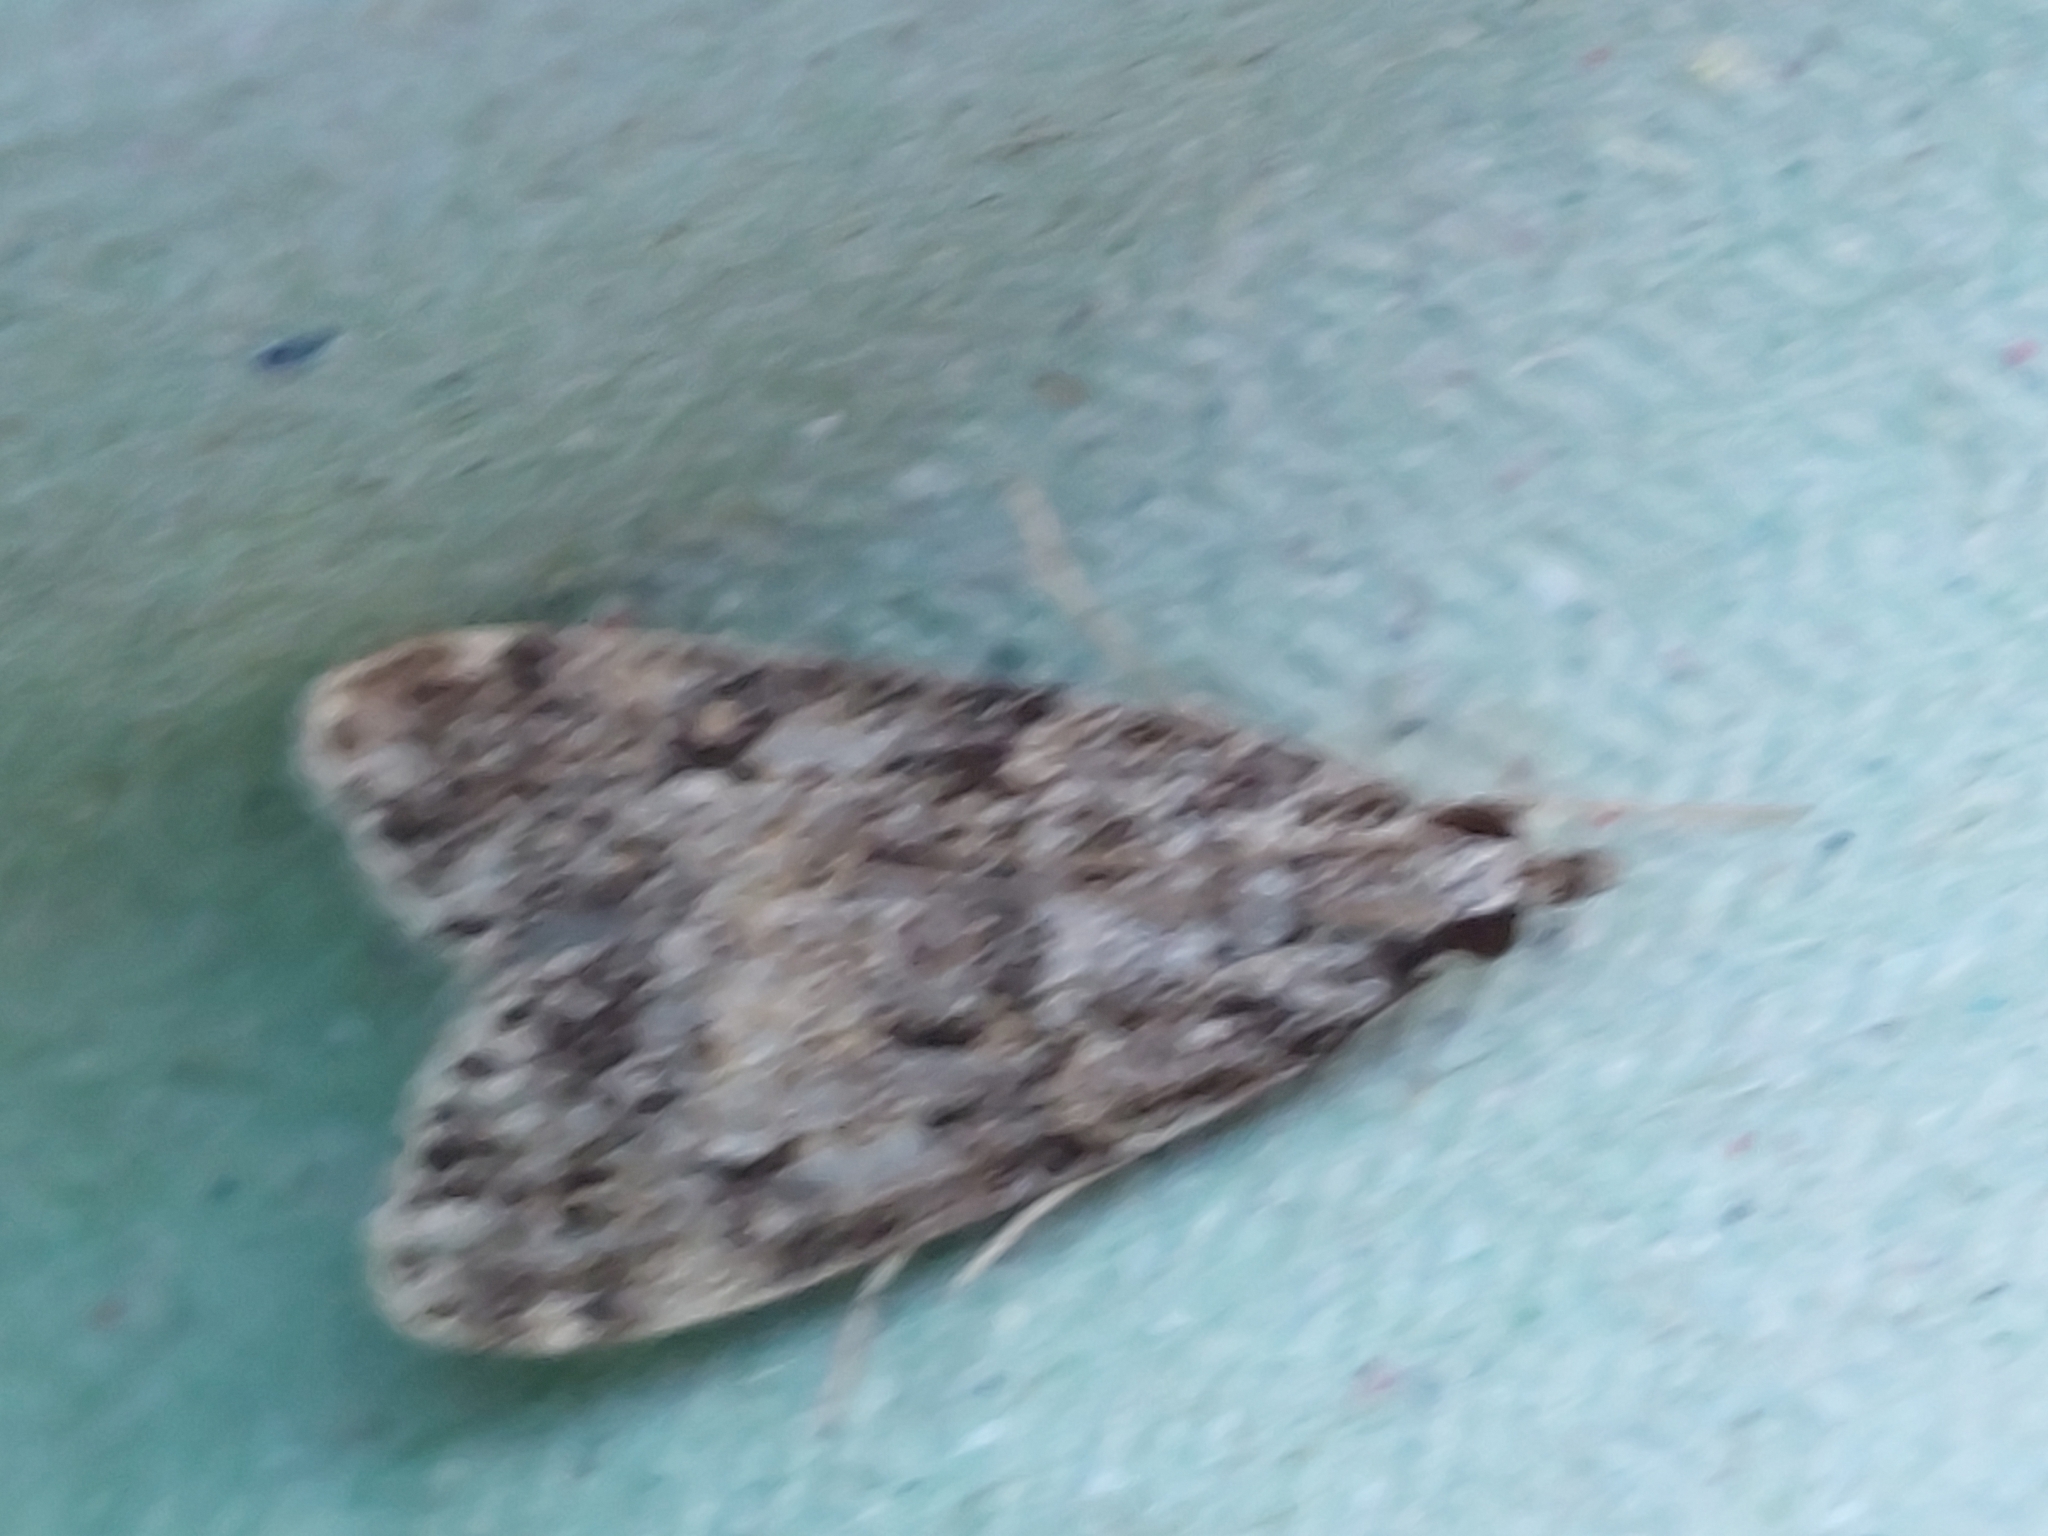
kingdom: Animalia
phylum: Arthropoda
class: Insecta
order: Lepidoptera
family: Crambidae
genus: Scoparia
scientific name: Scoparia ambigualis
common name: Common grey
